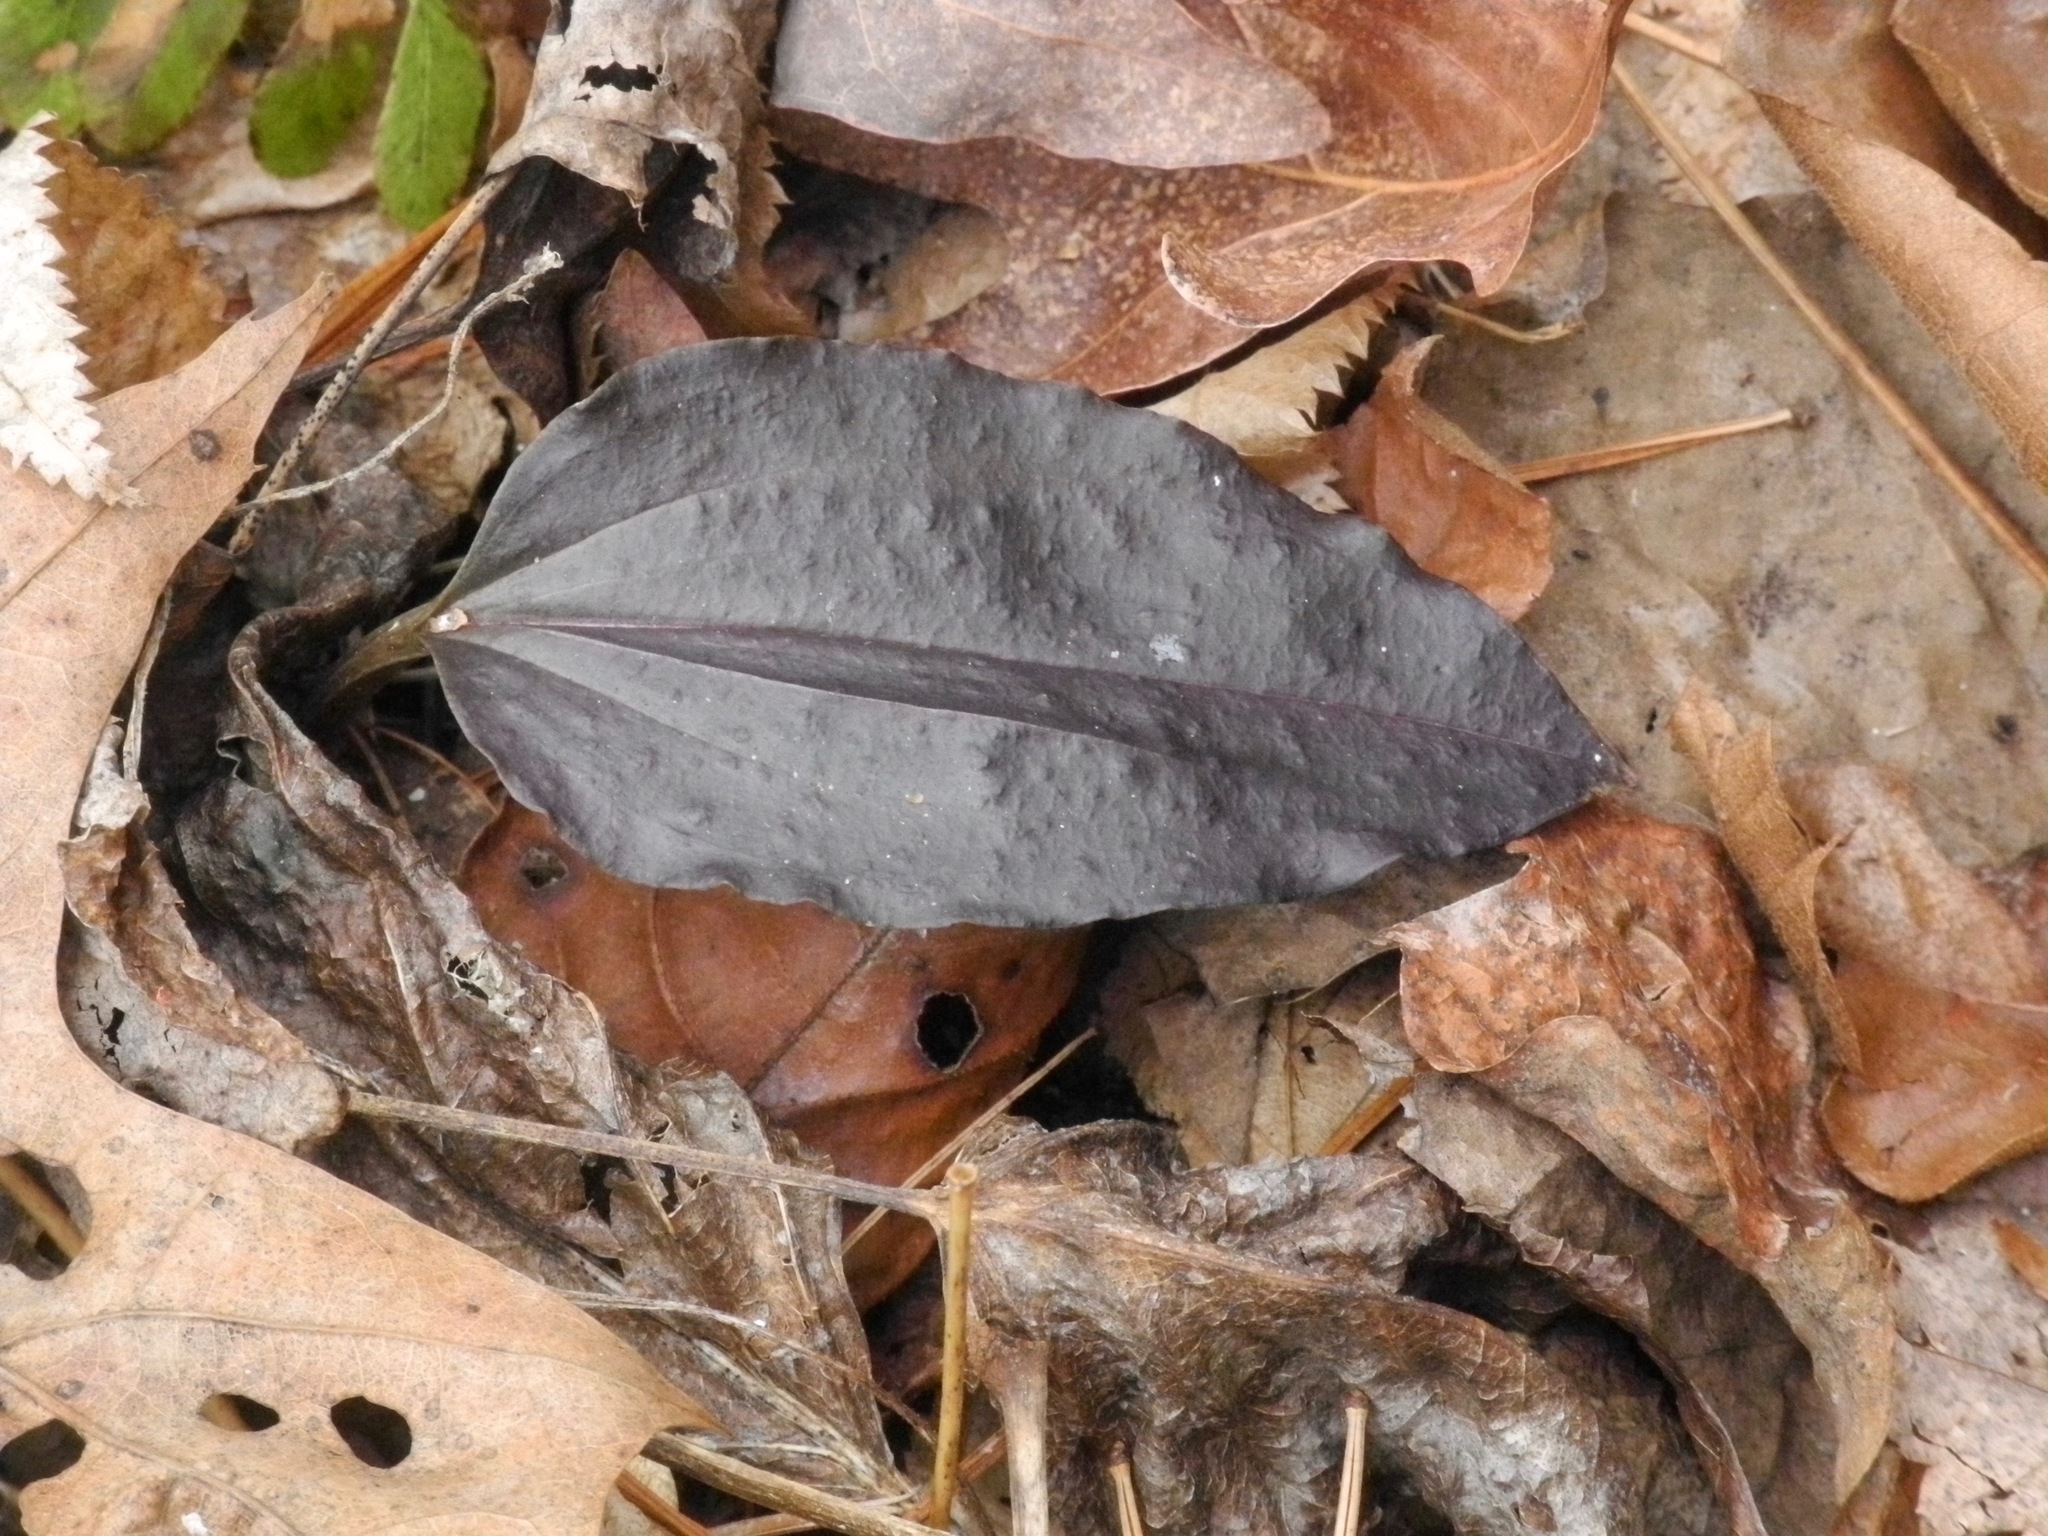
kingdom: Plantae
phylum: Tracheophyta
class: Liliopsida
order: Asparagales
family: Orchidaceae
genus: Tipularia
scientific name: Tipularia discolor
